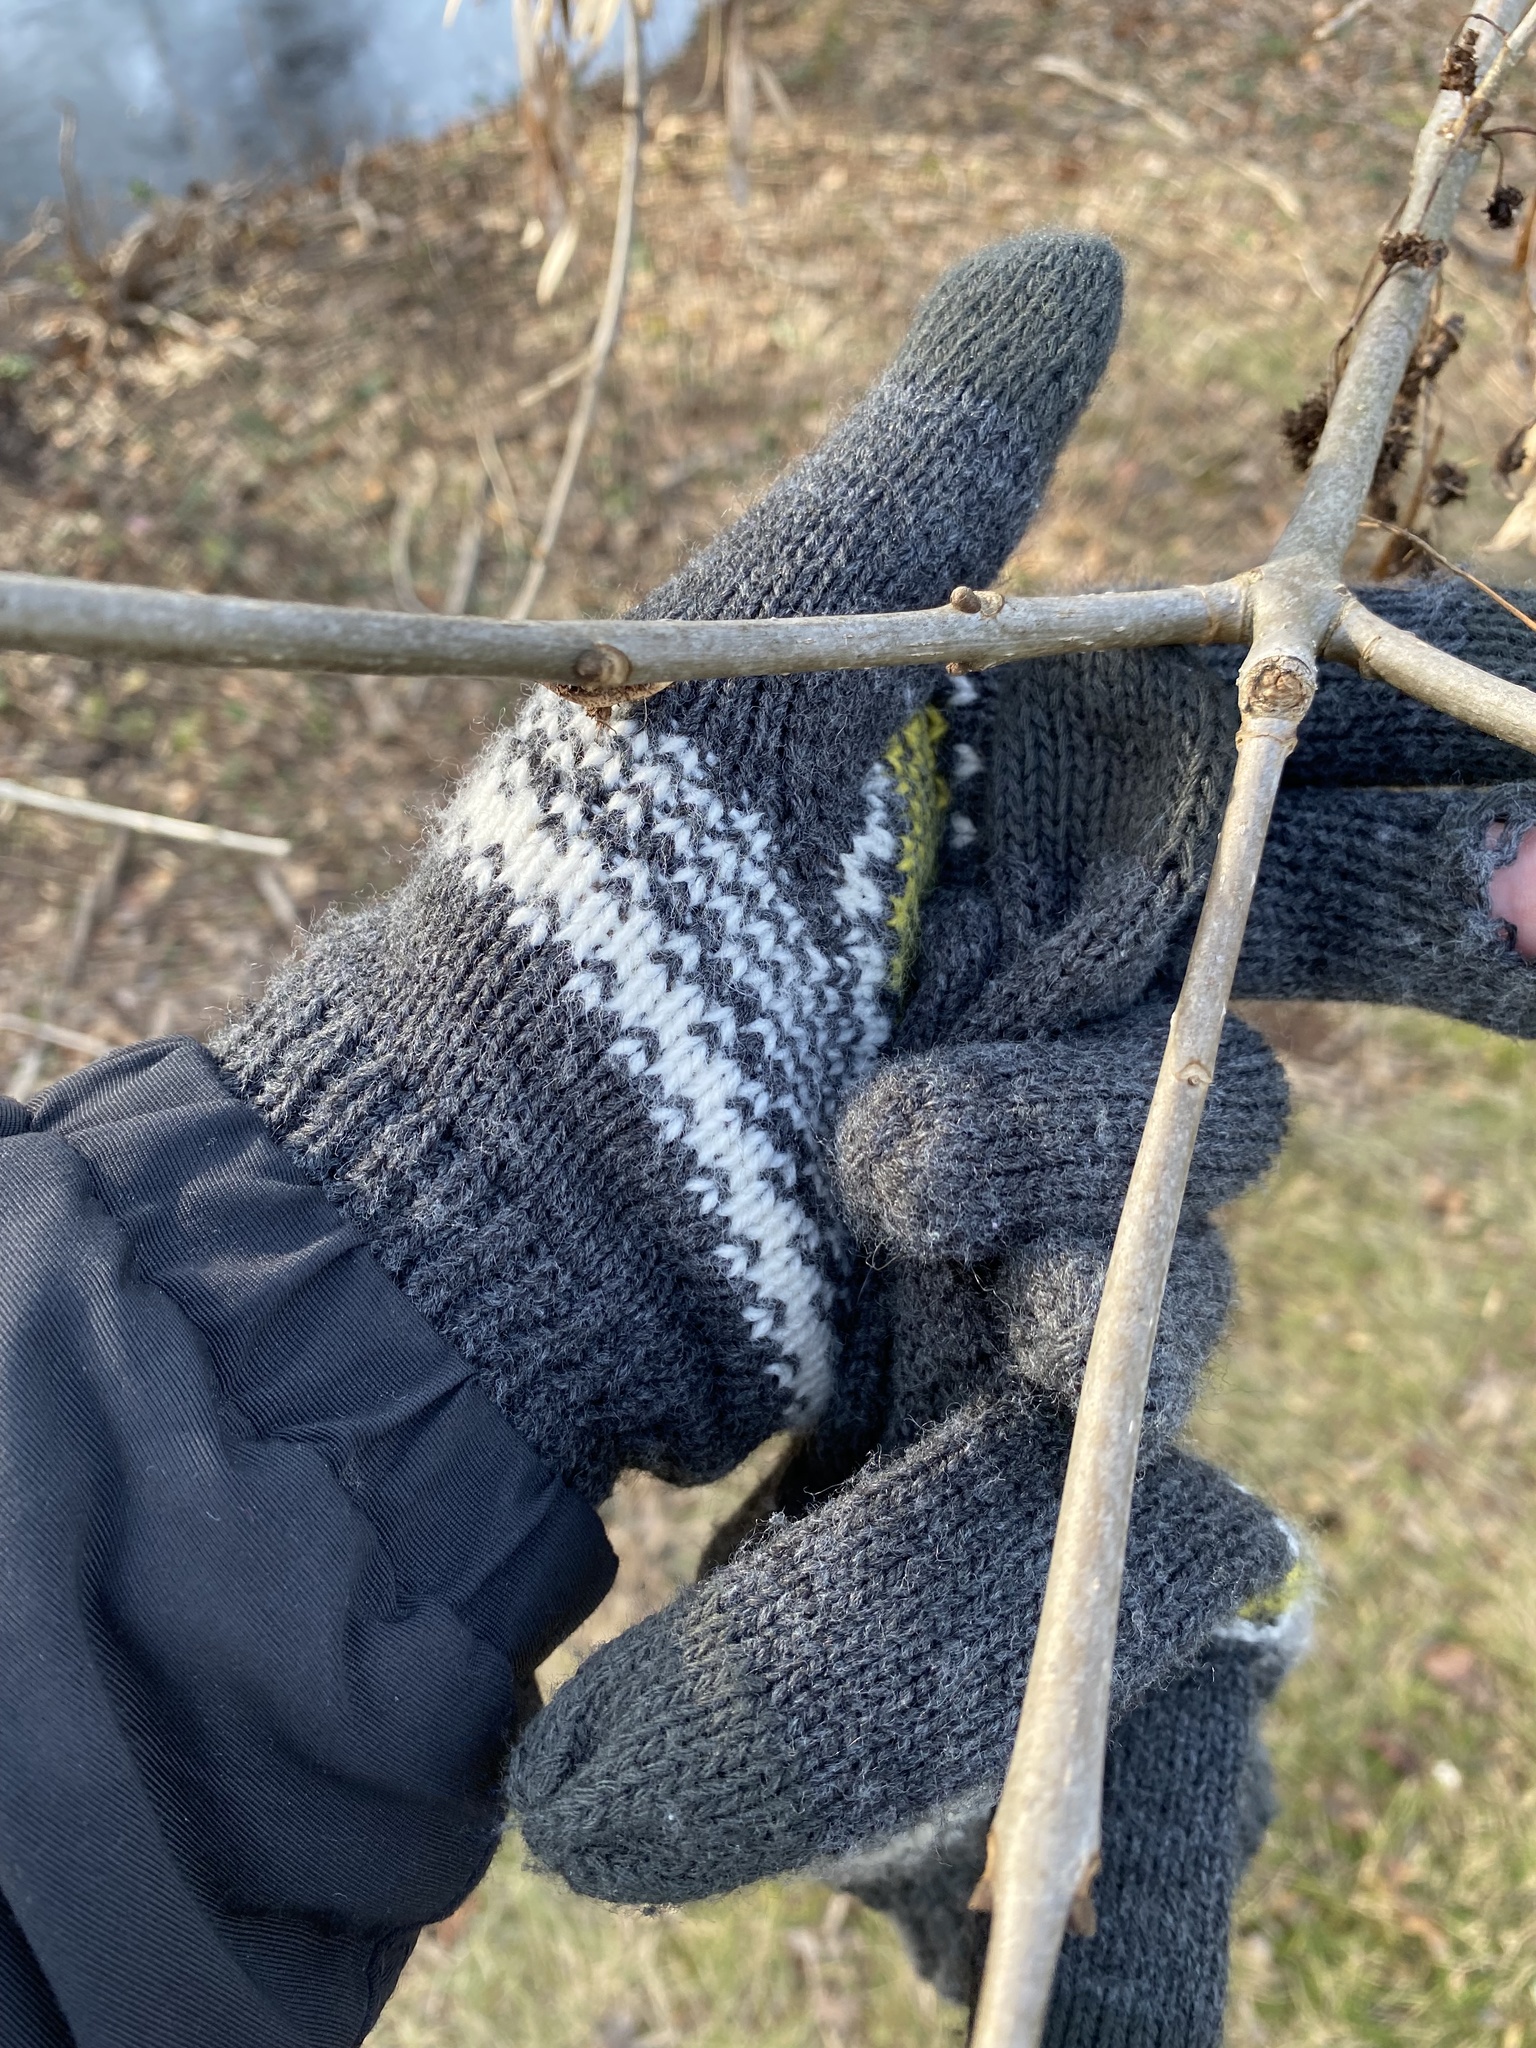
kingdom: Plantae
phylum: Tracheophyta
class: Magnoliopsida
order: Lamiales
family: Oleaceae
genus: Fraxinus
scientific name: Fraxinus americana
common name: White ash
